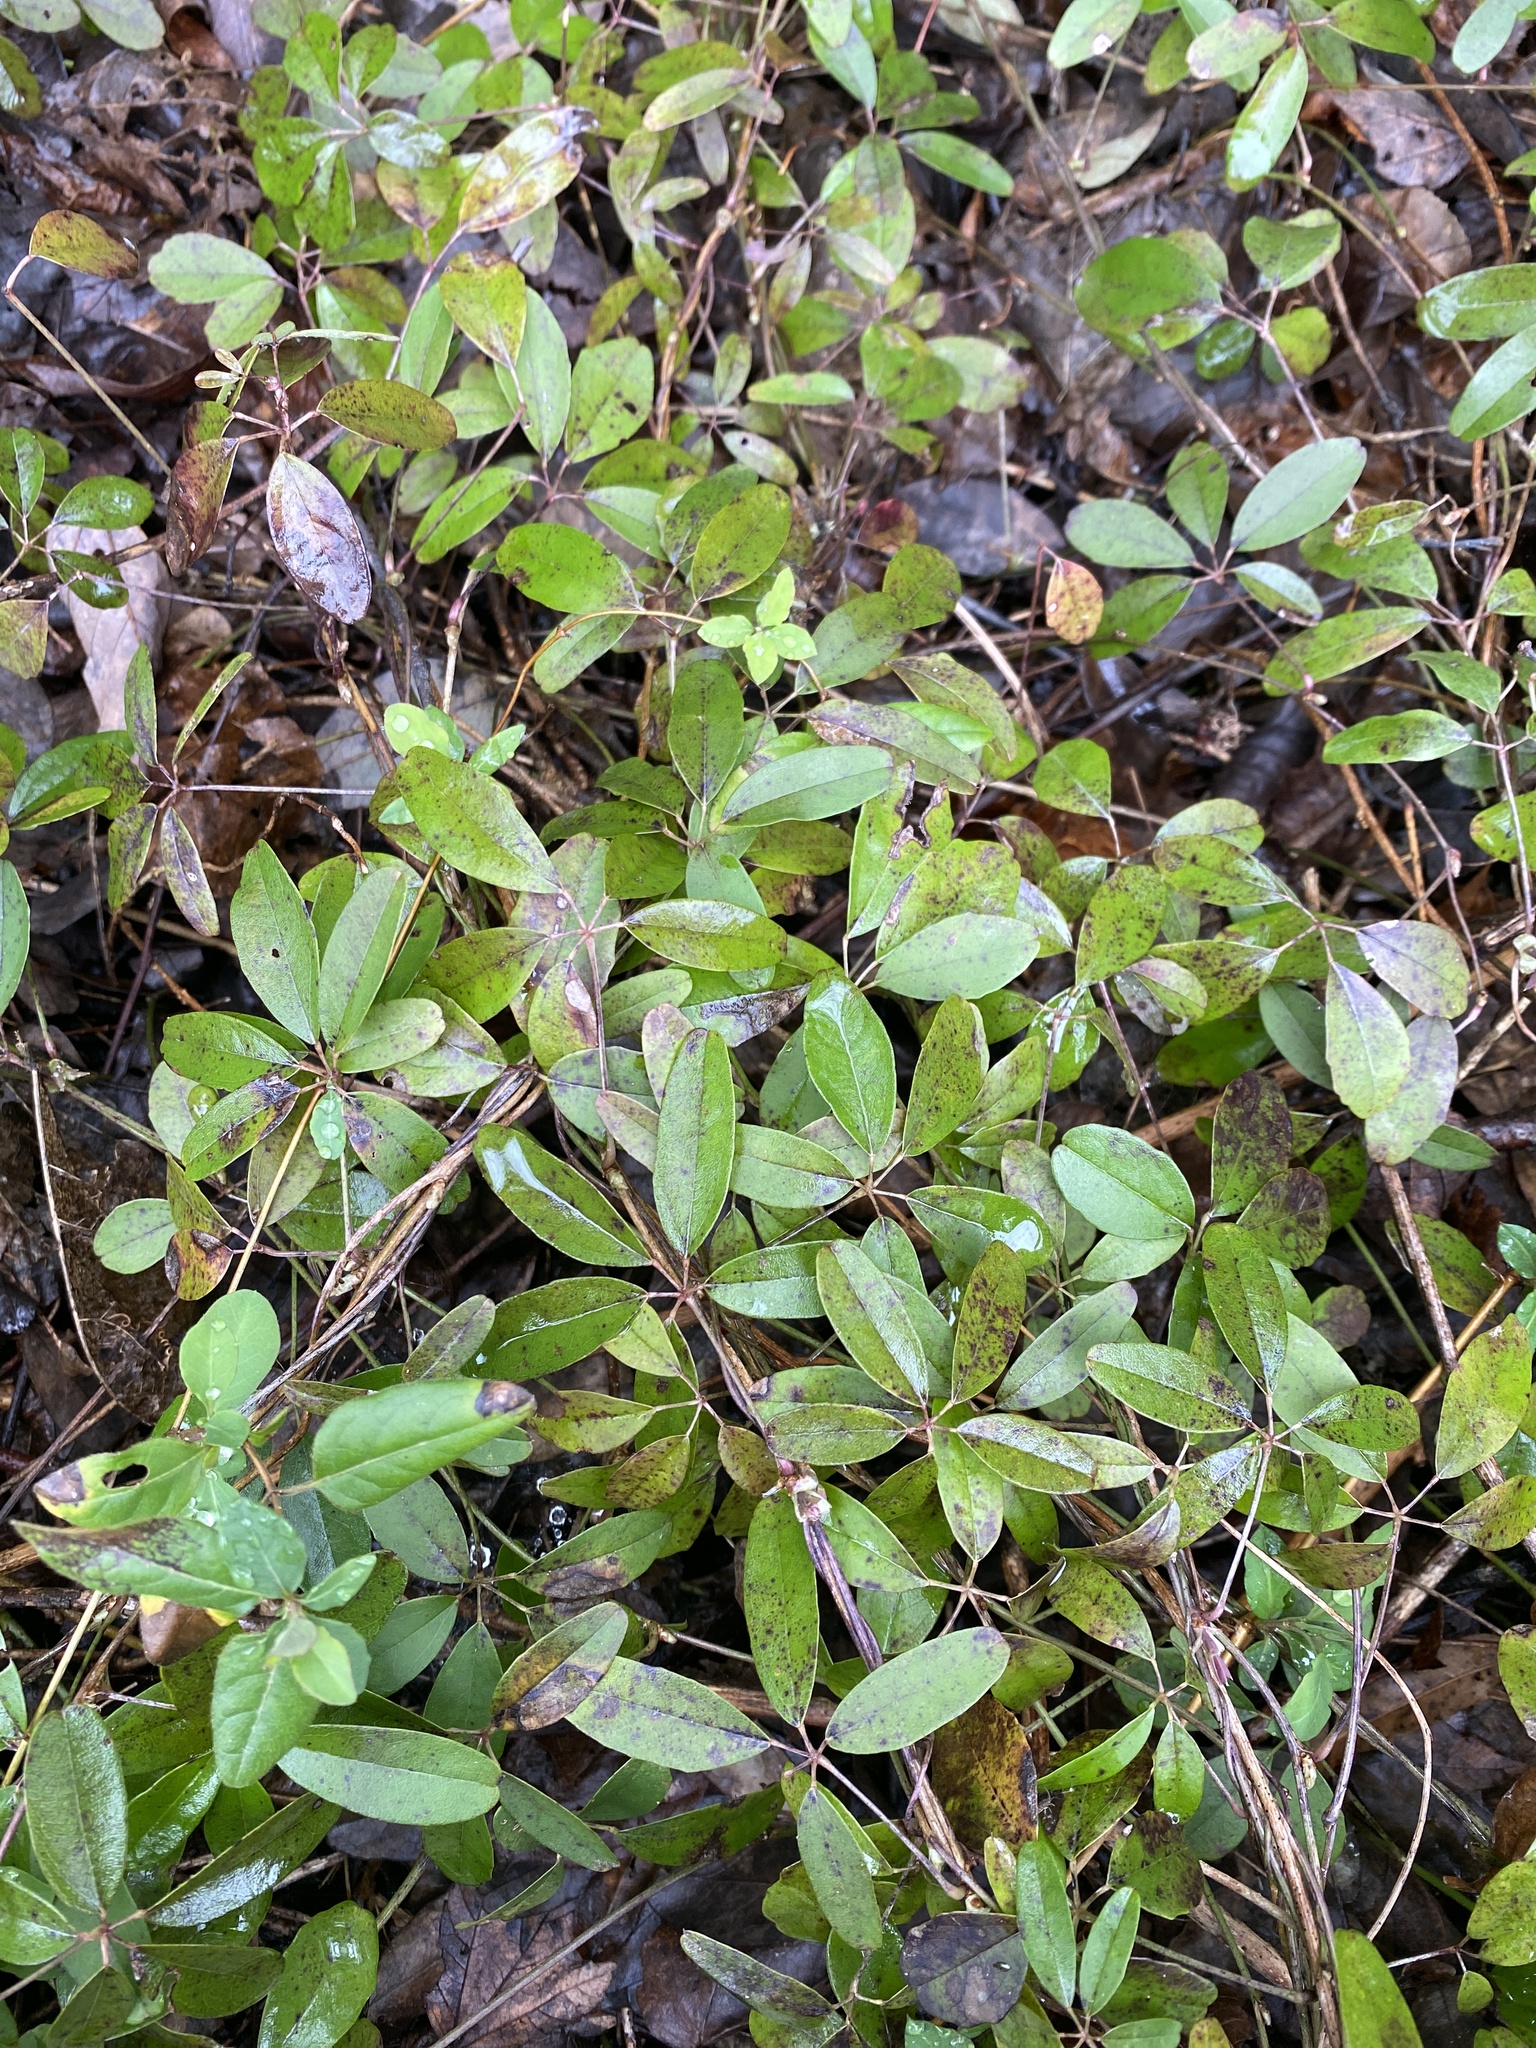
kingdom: Plantae
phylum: Tracheophyta
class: Magnoliopsida
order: Ranunculales
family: Lardizabalaceae
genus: Akebia
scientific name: Akebia quinata
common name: Five-leaf akebia
